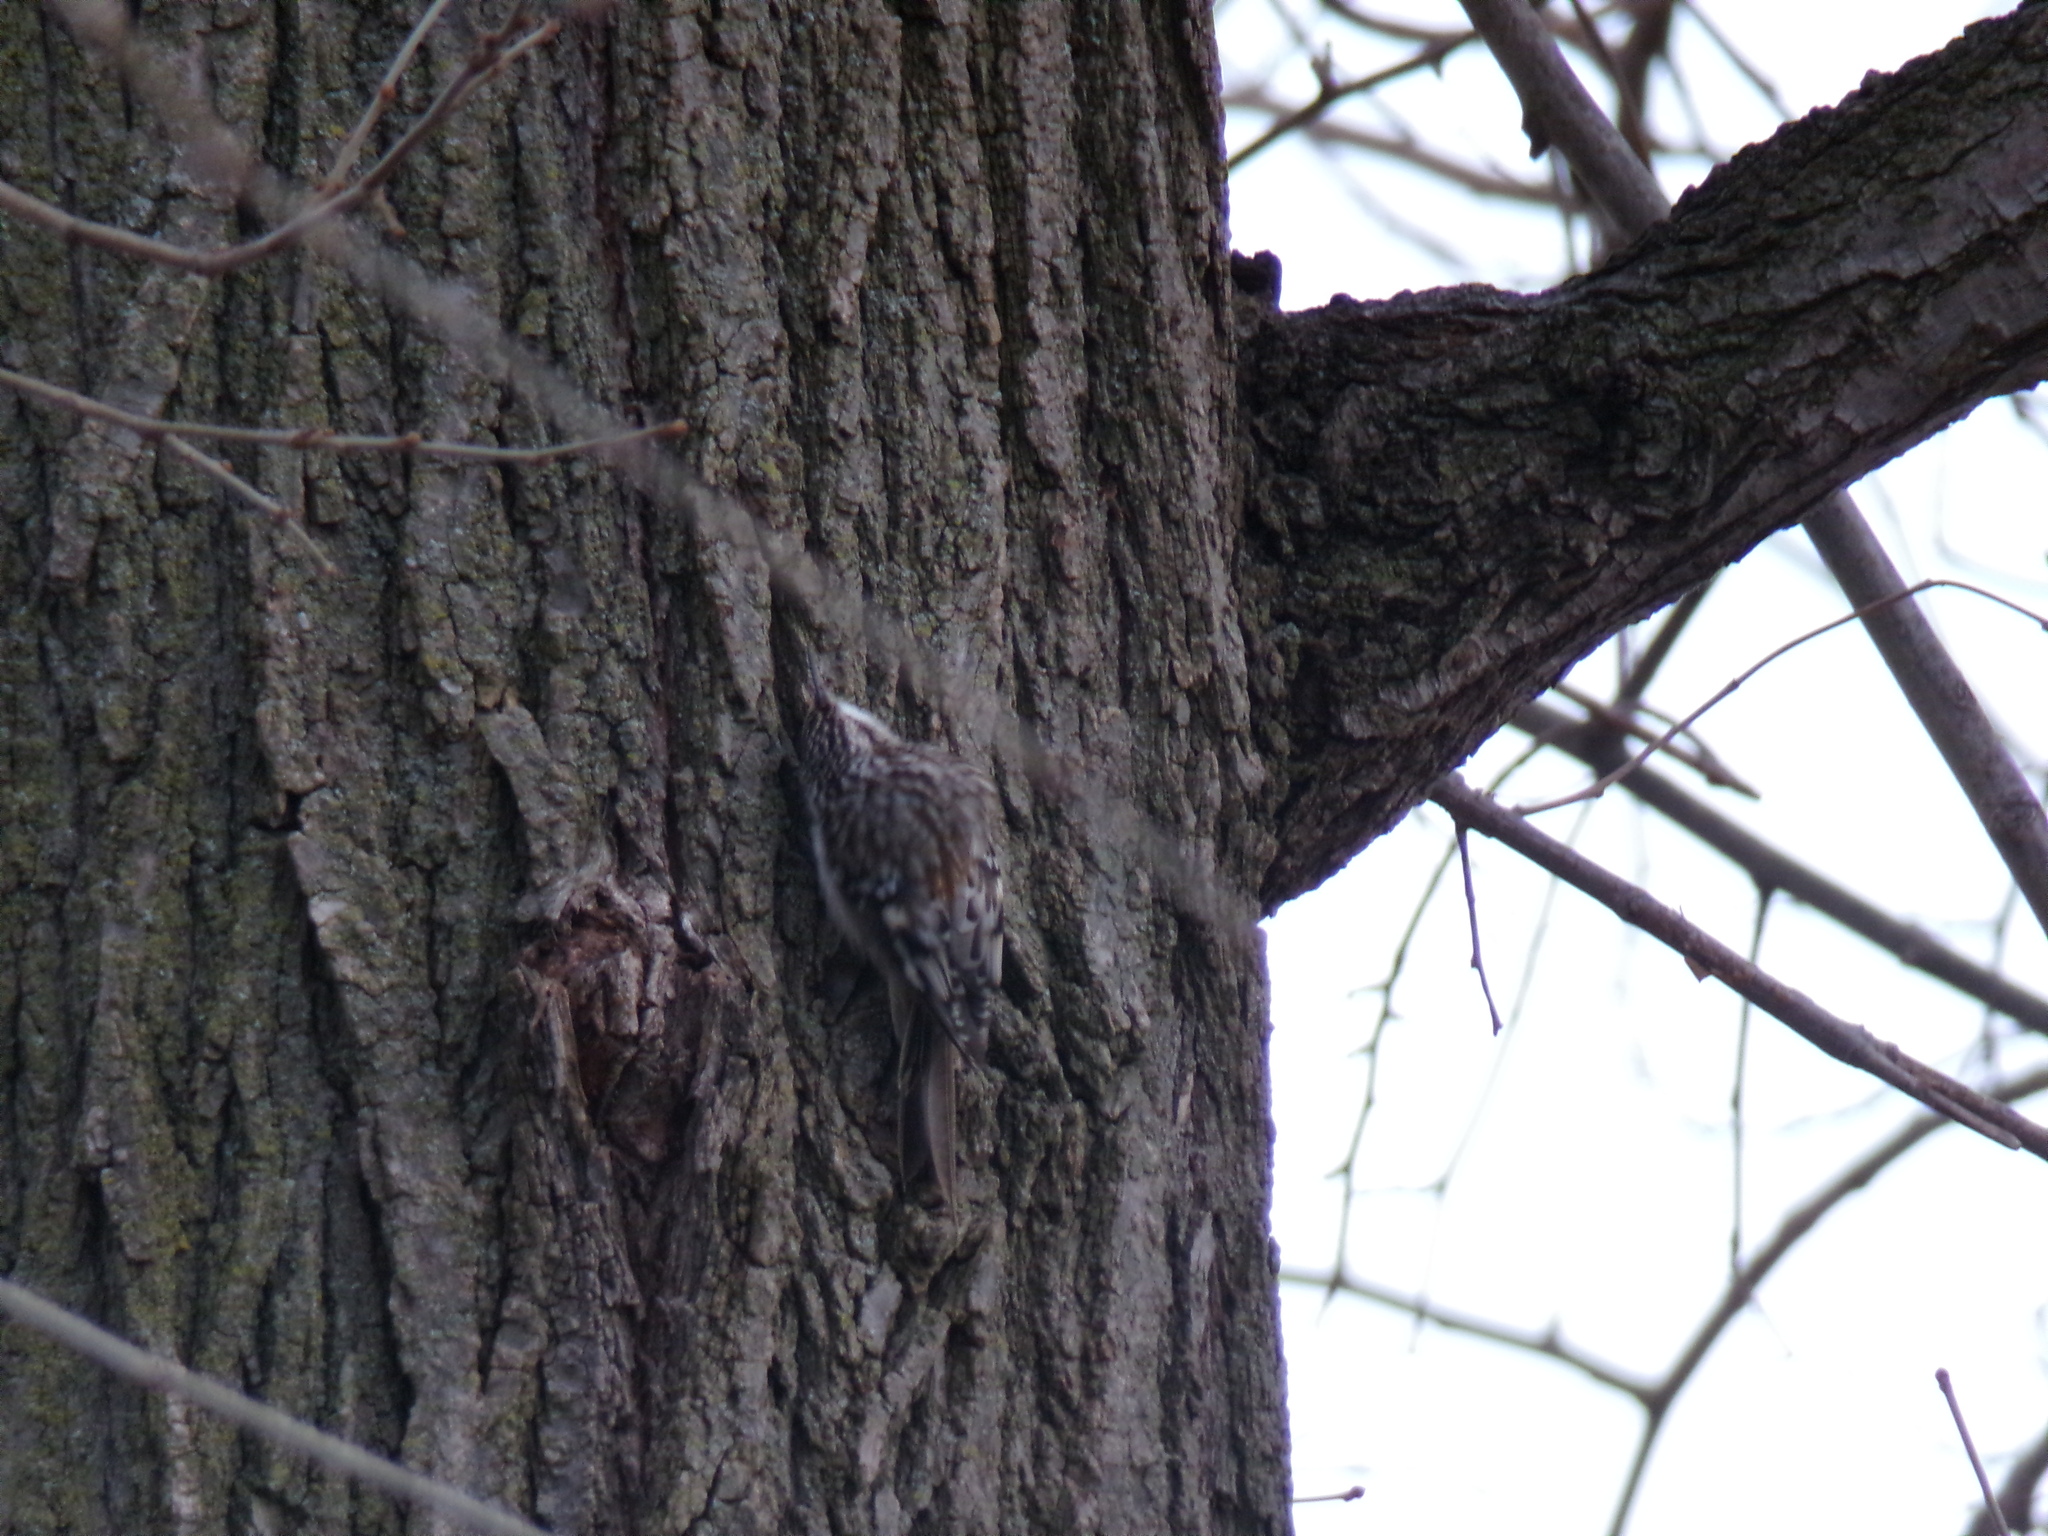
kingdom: Animalia
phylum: Chordata
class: Aves
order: Passeriformes
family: Certhiidae
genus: Certhia
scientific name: Certhia americana
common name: Brown creeper
